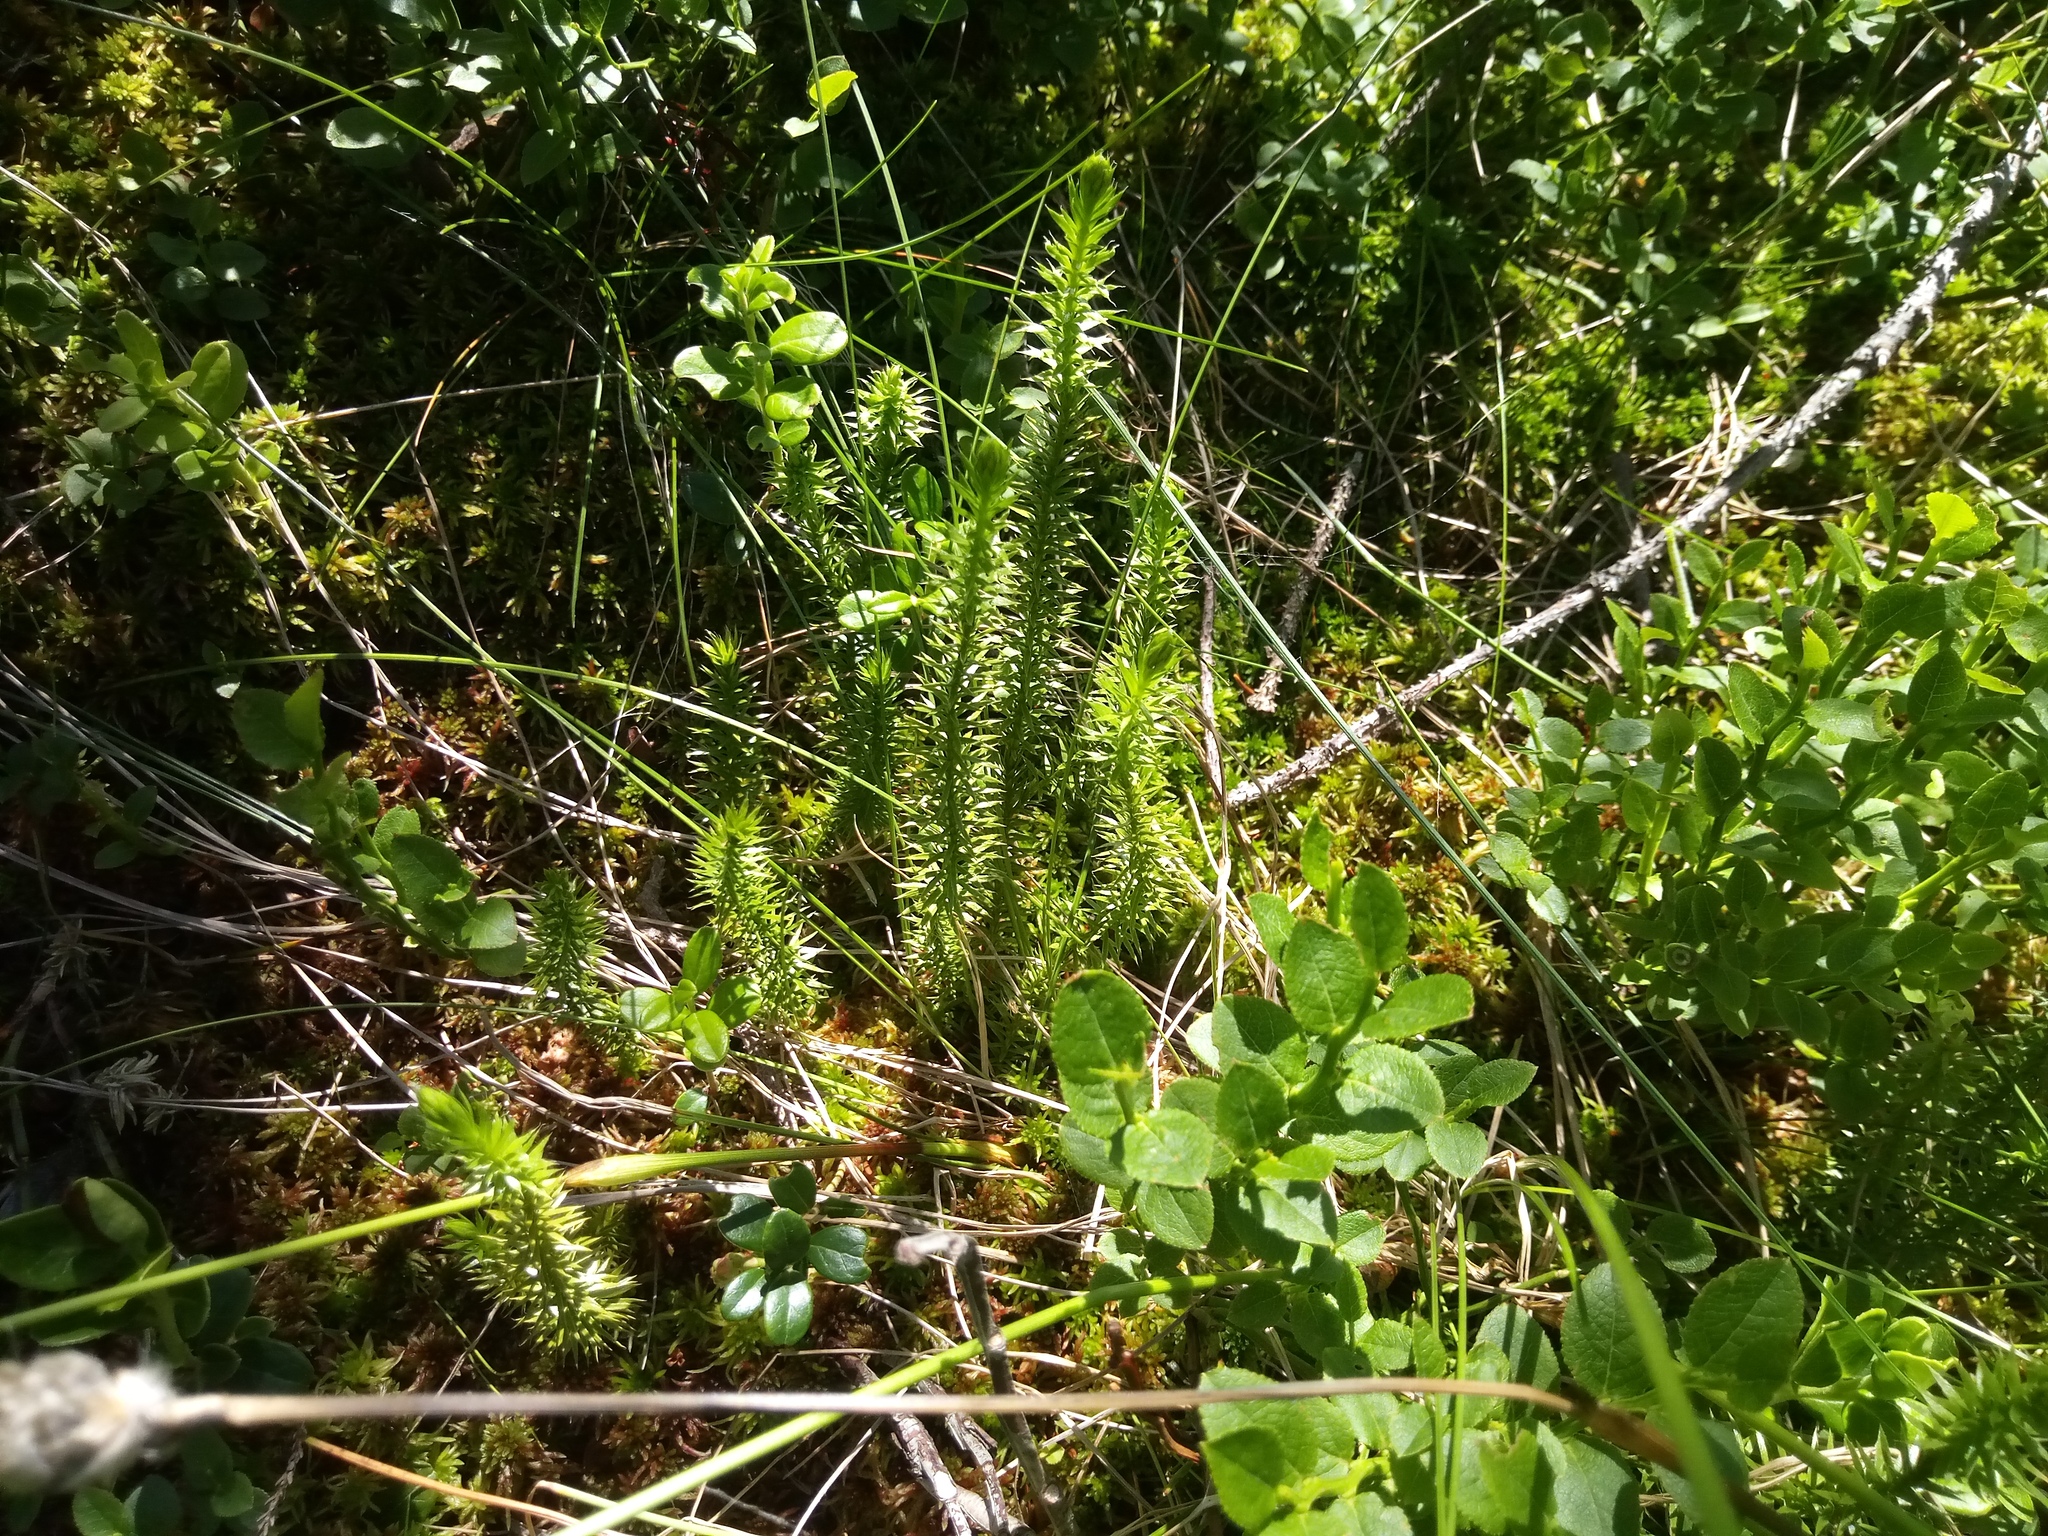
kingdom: Plantae
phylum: Tracheophyta
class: Lycopodiopsida
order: Lycopodiales
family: Lycopodiaceae
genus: Spinulum
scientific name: Spinulum annotinum
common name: Interrupted club-moss
